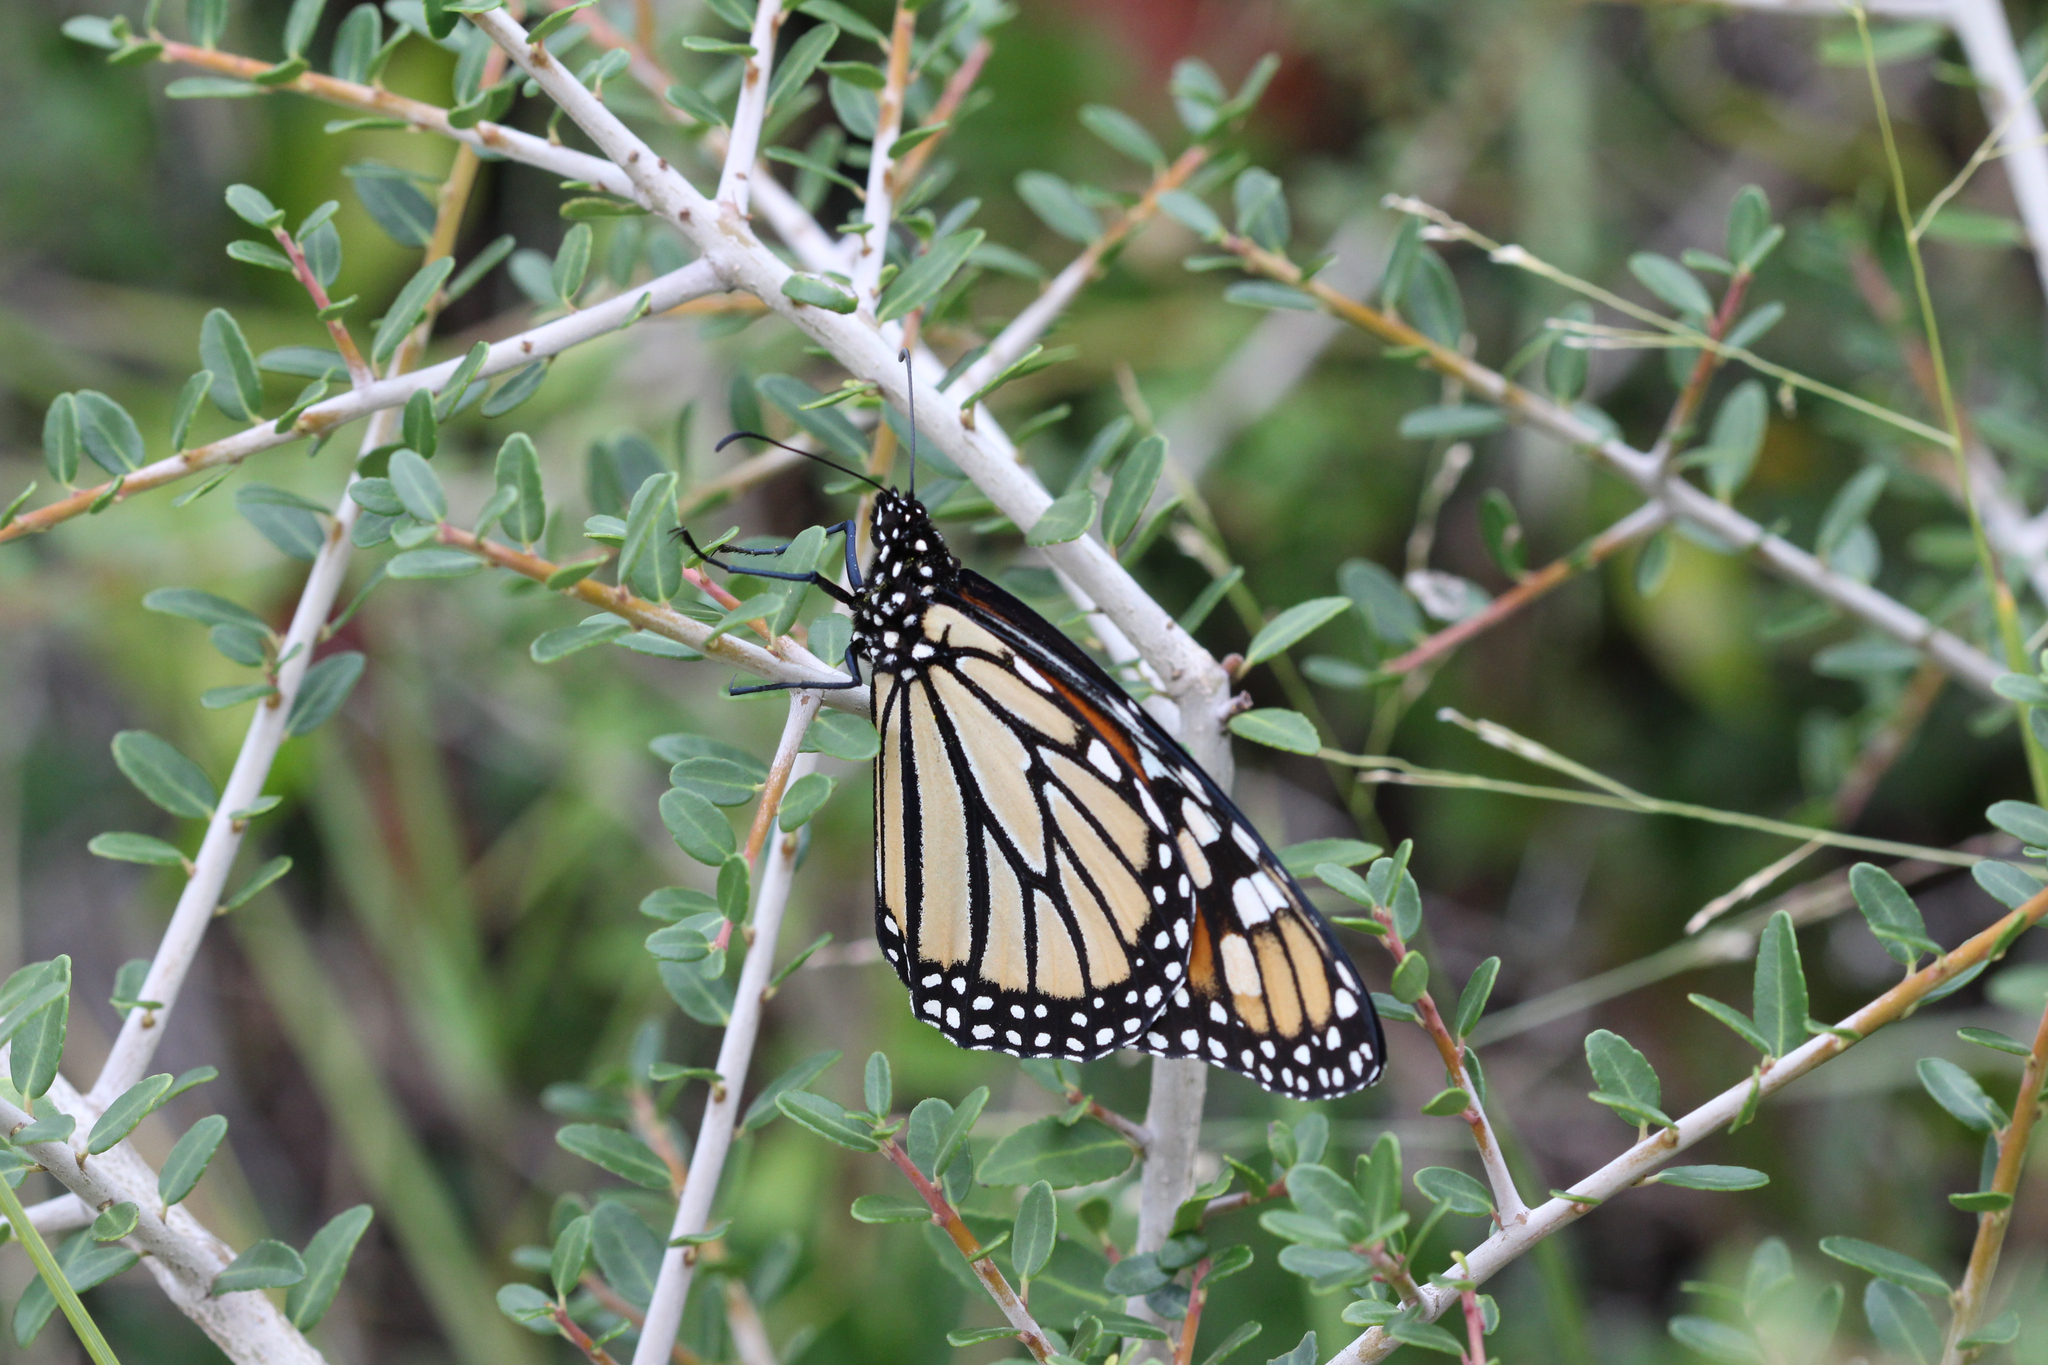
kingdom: Animalia
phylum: Arthropoda
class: Insecta
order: Lepidoptera
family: Nymphalidae
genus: Danaus
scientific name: Danaus plexippus
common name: Monarch
